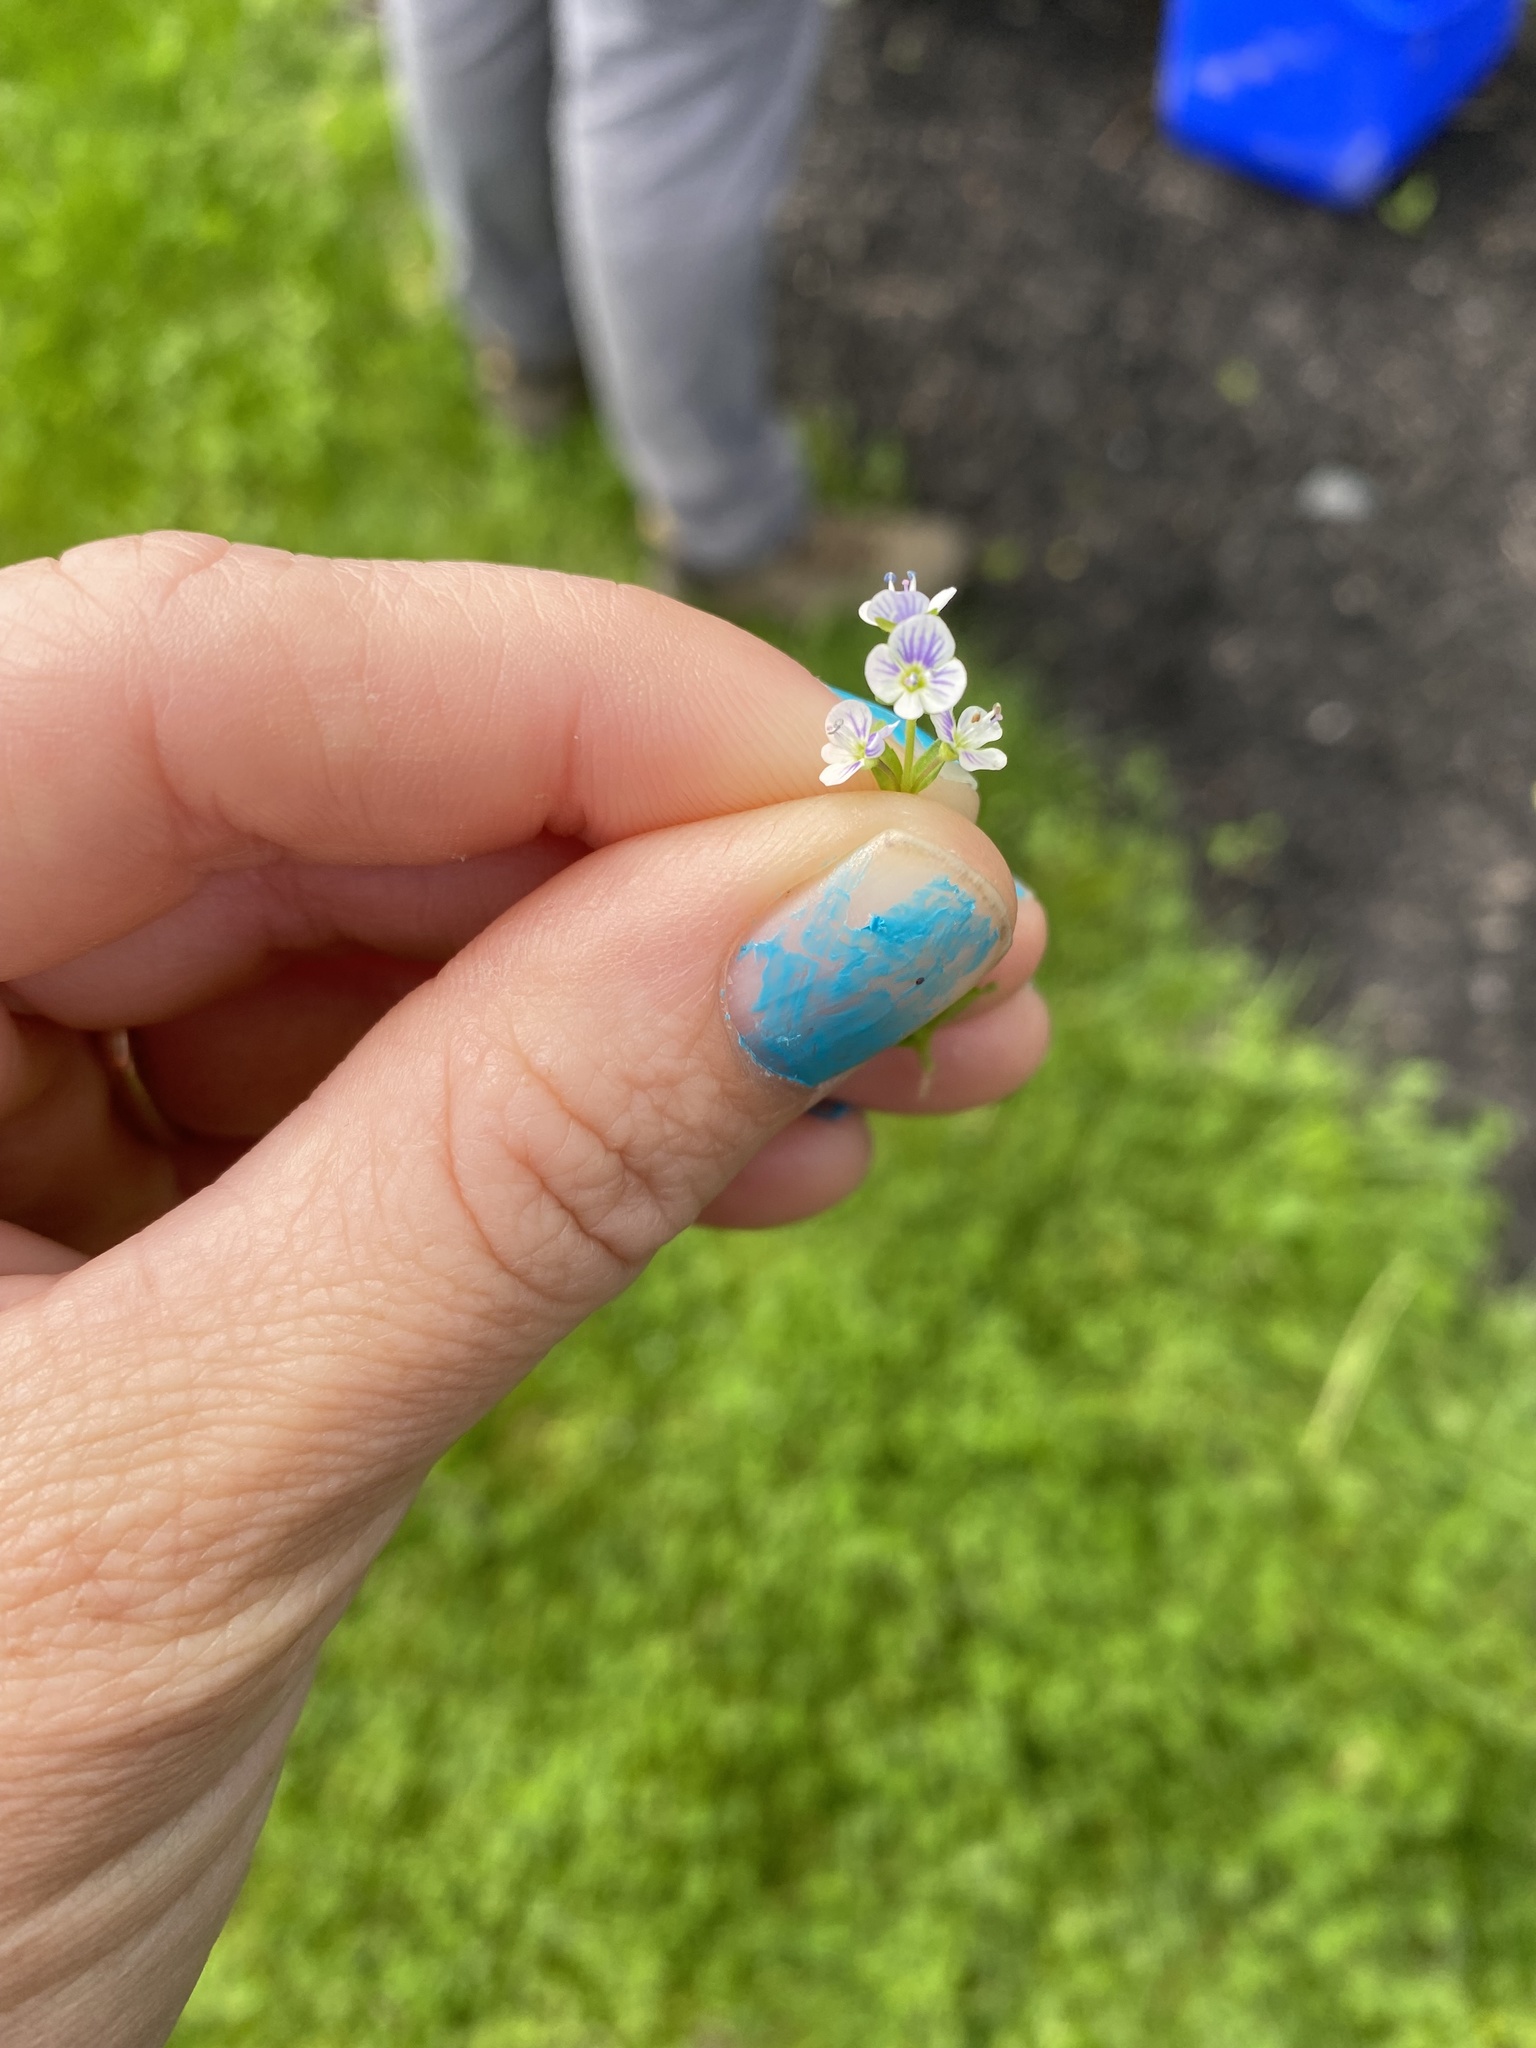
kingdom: Plantae
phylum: Tracheophyta
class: Magnoliopsida
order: Lamiales
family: Plantaginaceae
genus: Veronica
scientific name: Veronica serpyllifolia
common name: Thyme-leaved speedwell
